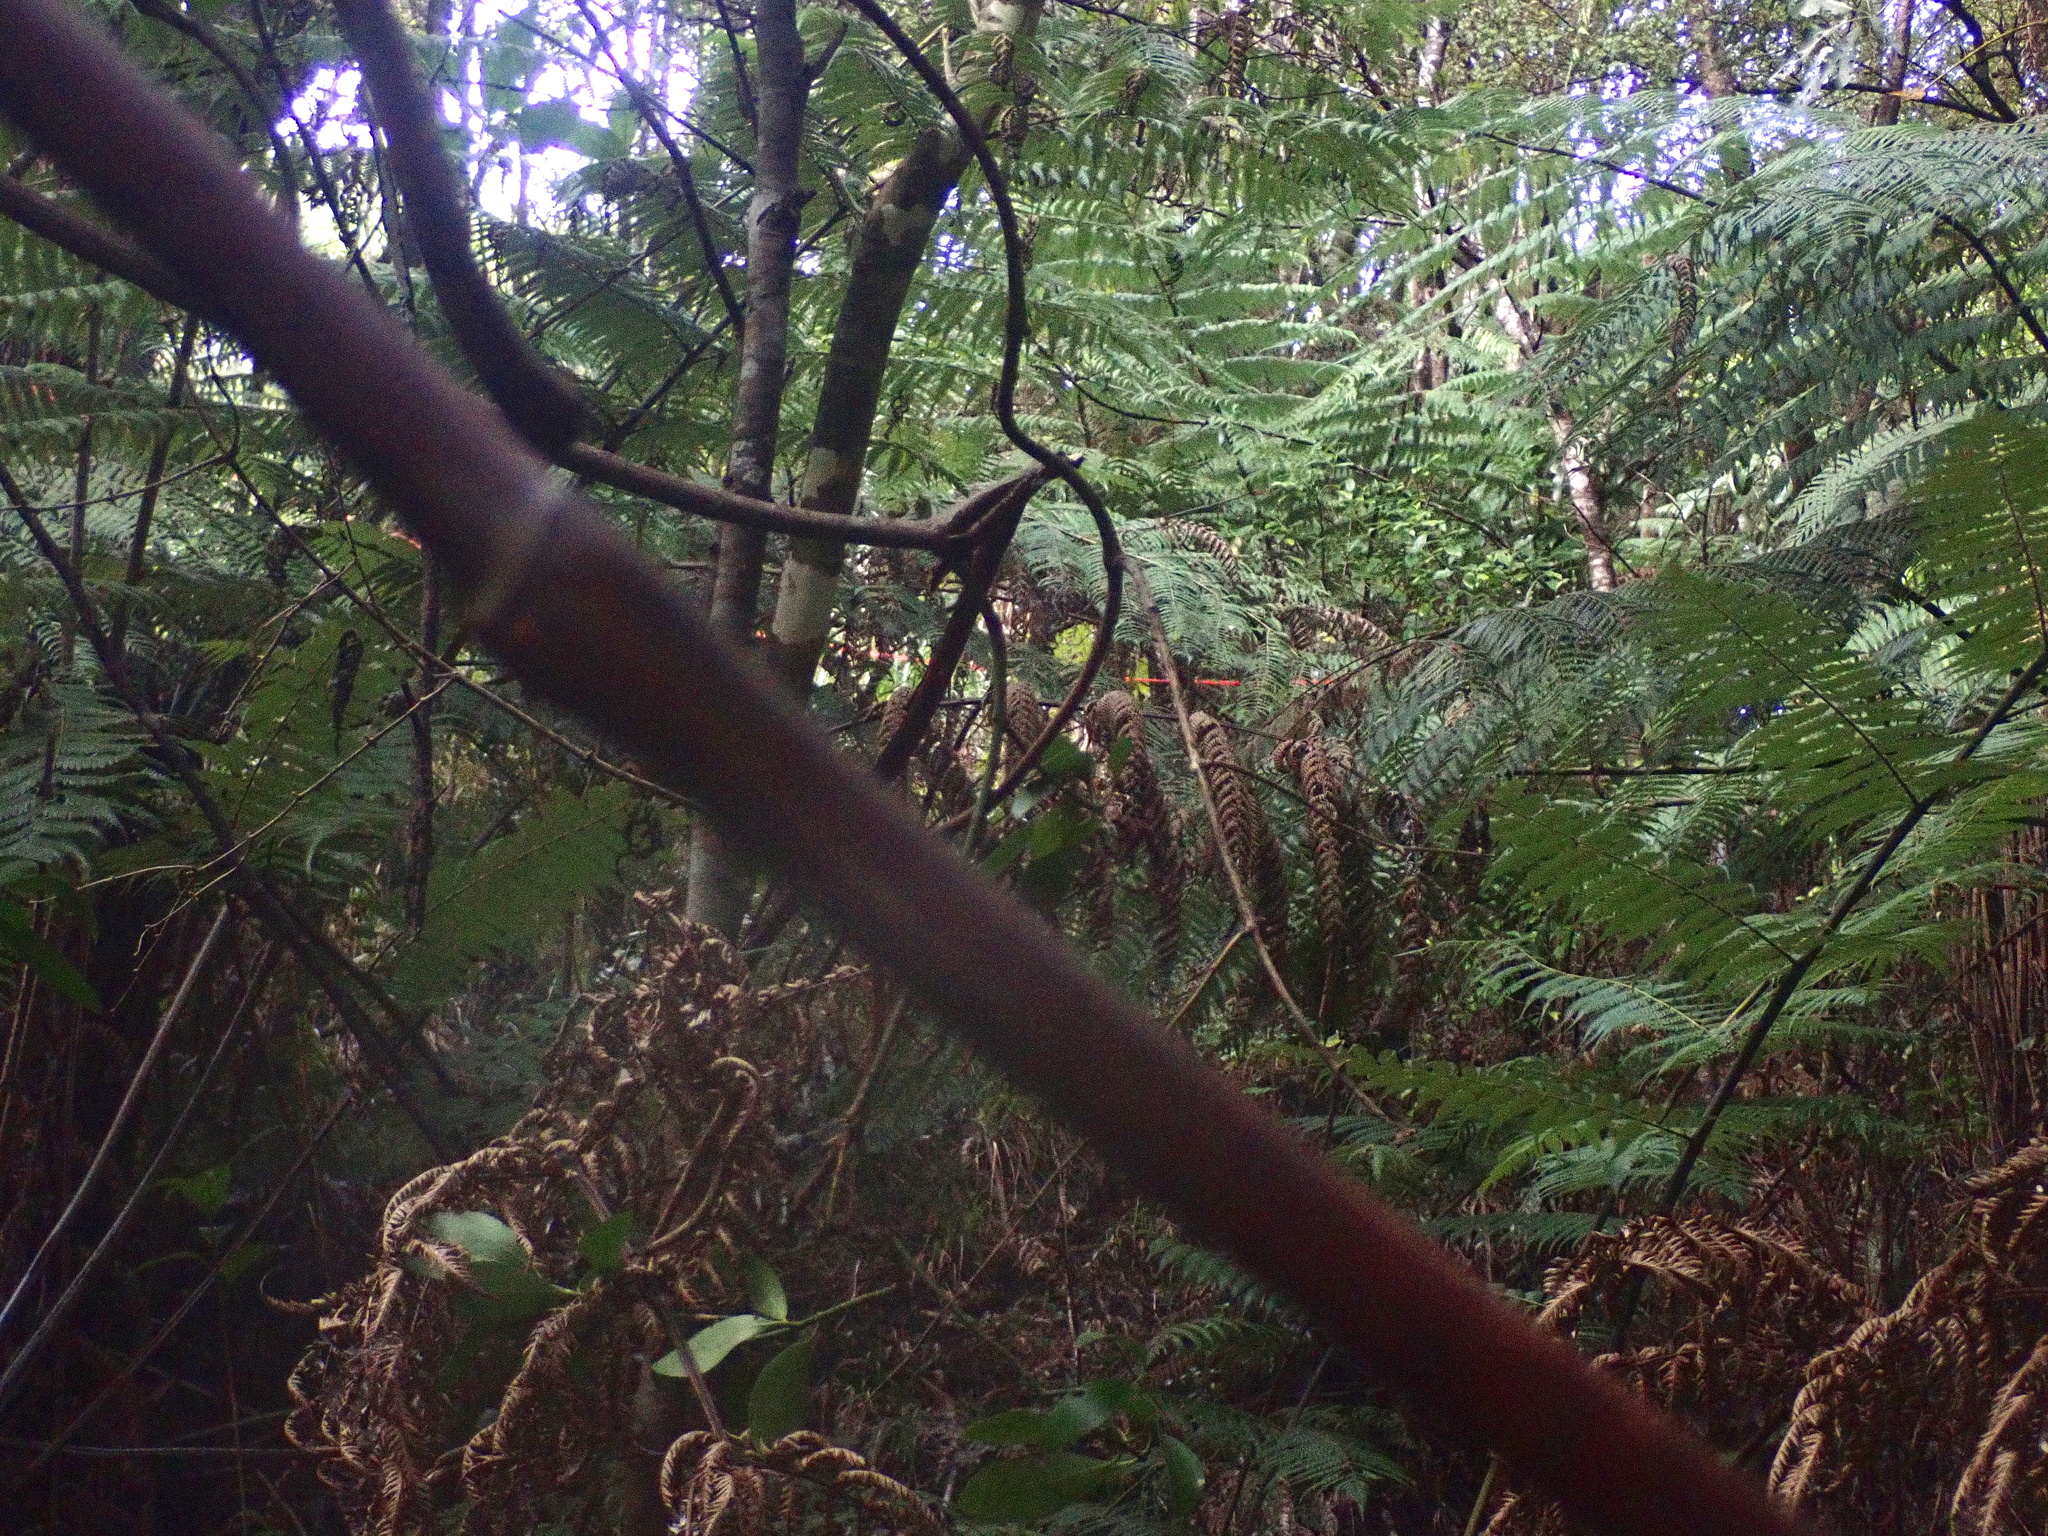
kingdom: Plantae
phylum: Tracheophyta
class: Liliopsida
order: Liliales
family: Ripogonaceae
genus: Ripogonum
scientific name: Ripogonum scandens
